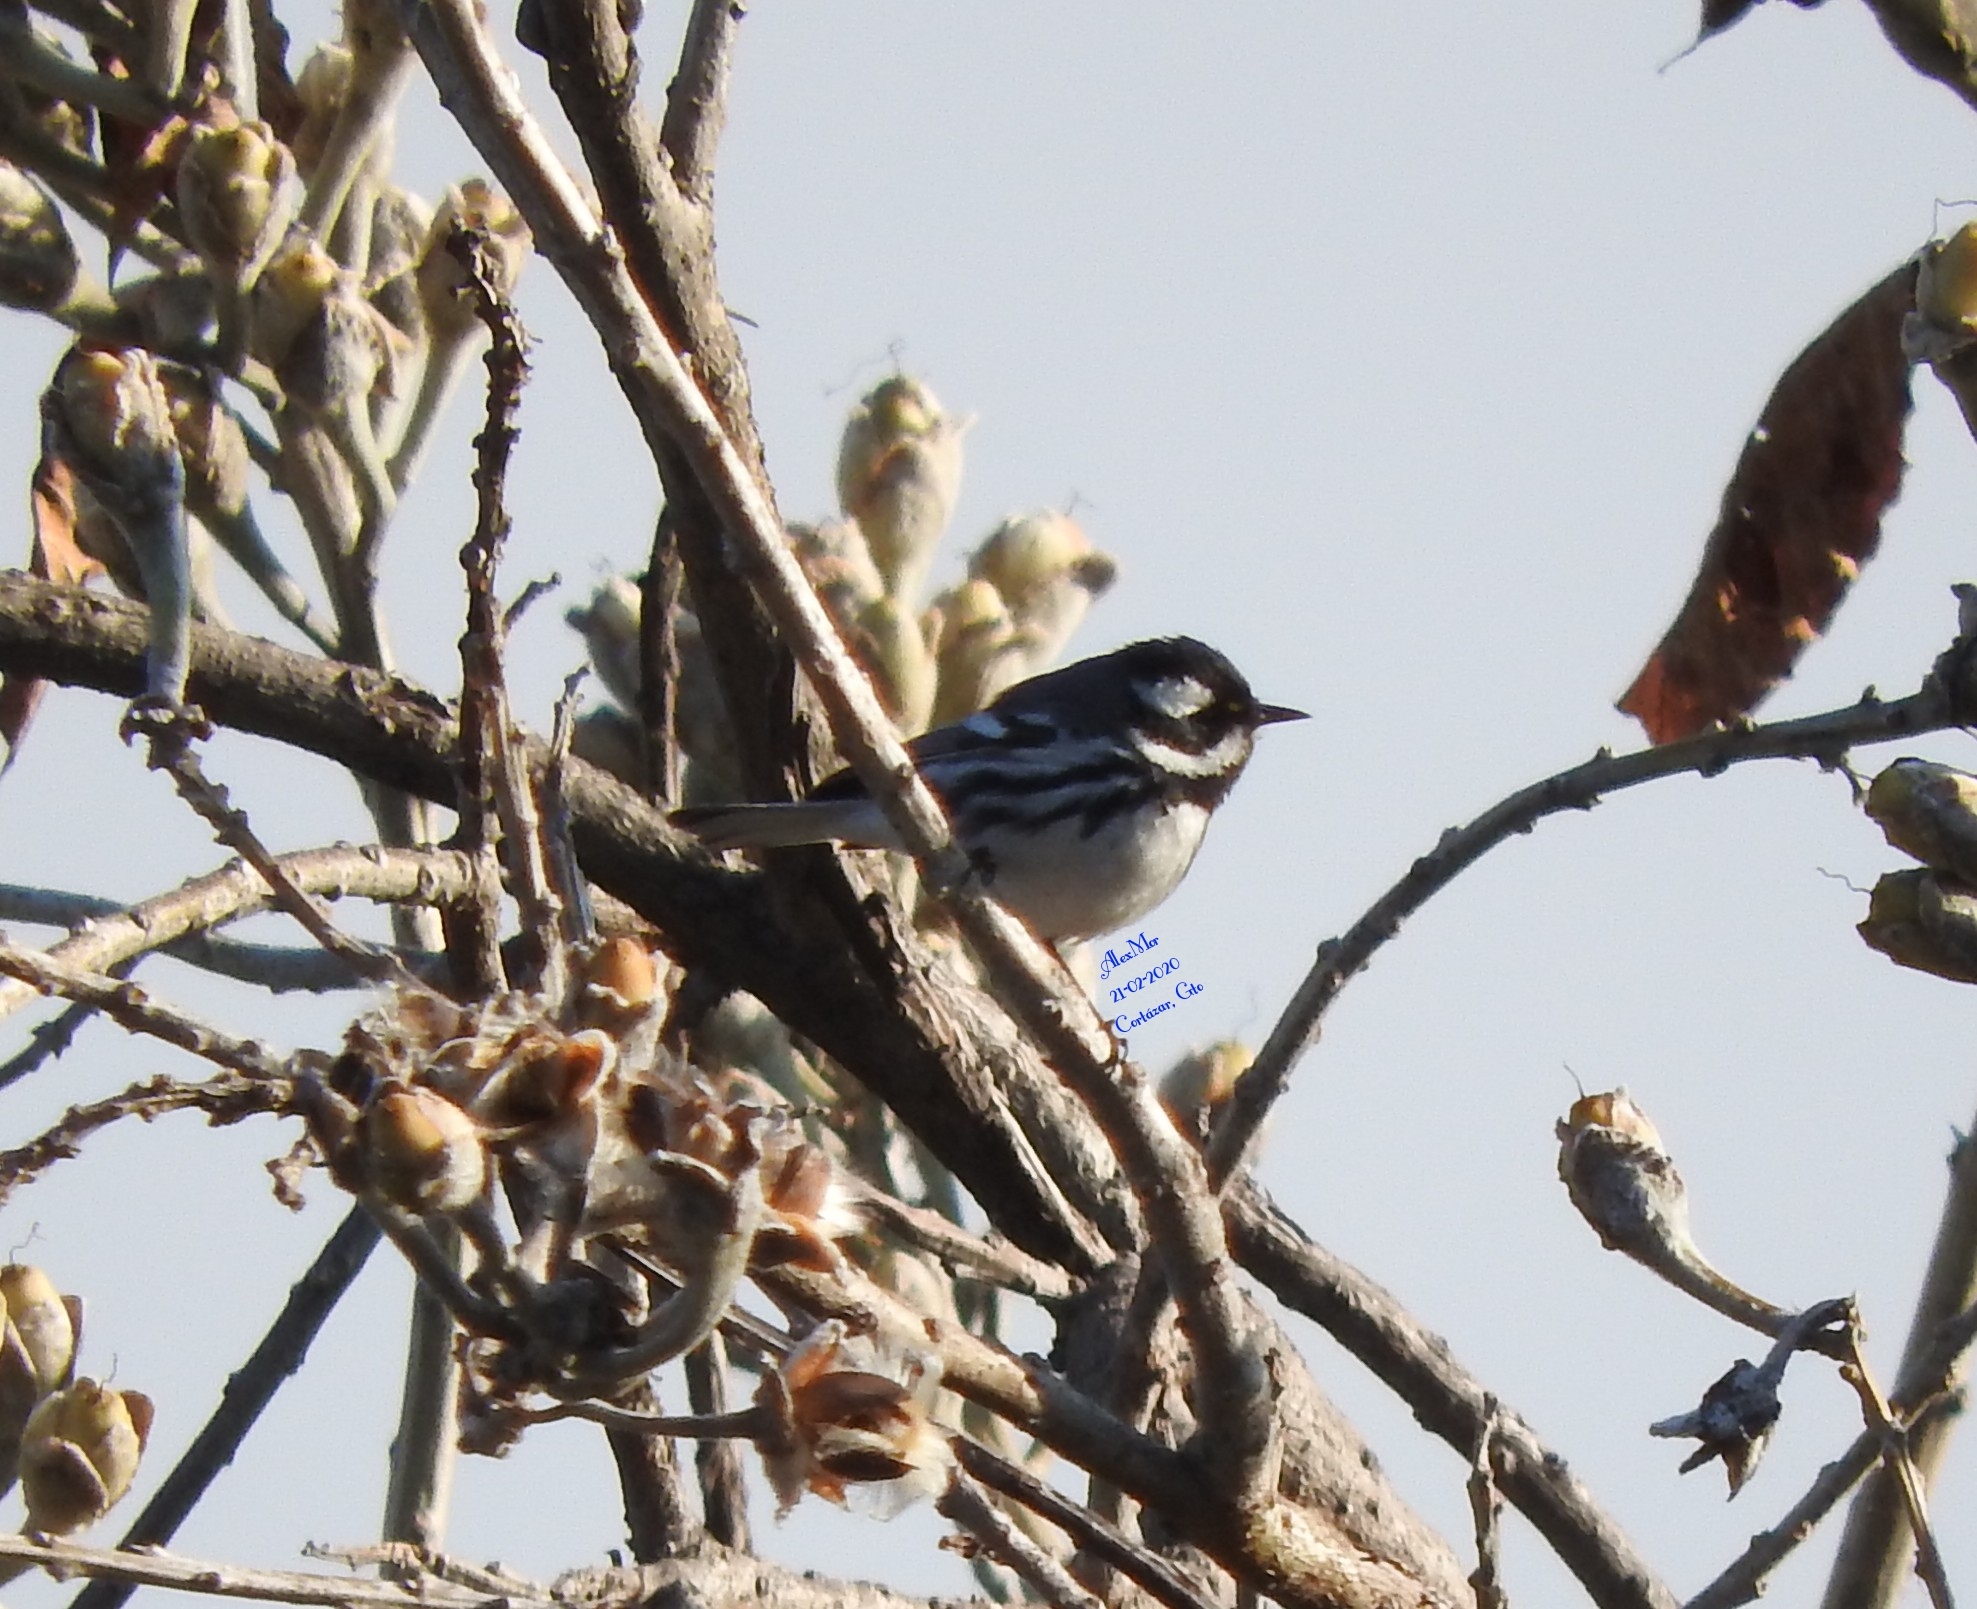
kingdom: Animalia
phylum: Chordata
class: Aves
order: Passeriformes
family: Parulidae
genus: Setophaga
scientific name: Setophaga nigrescens
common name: Black-throated gray warbler
